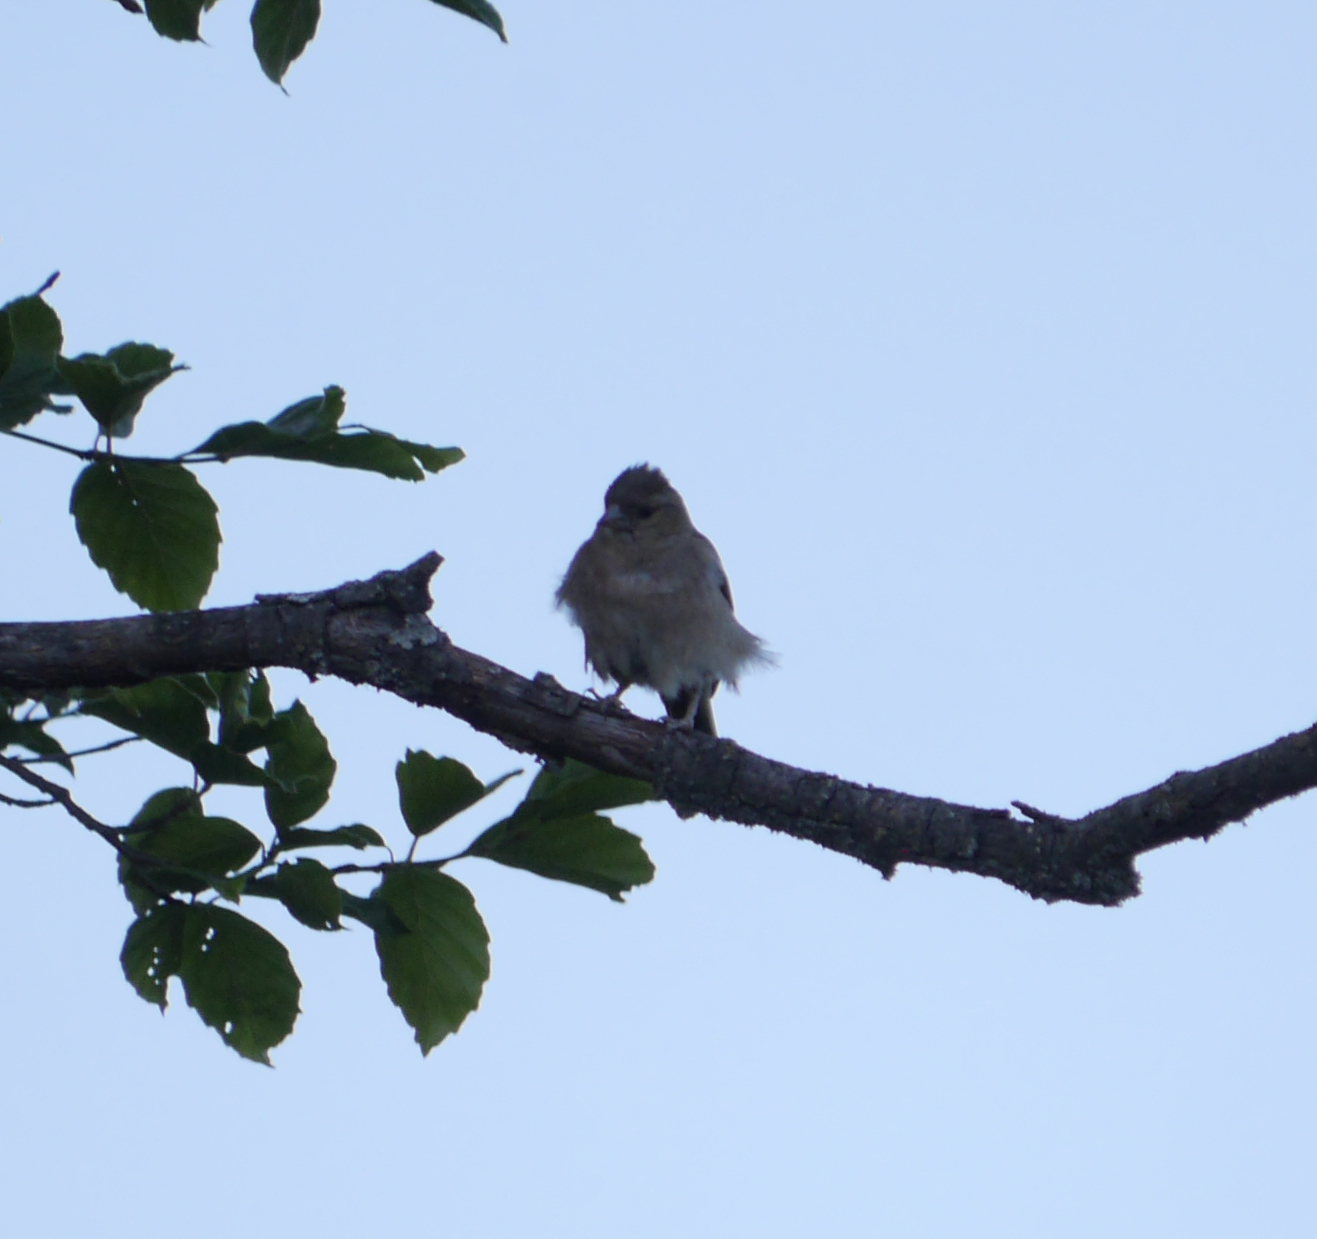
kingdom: Animalia
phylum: Chordata
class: Aves
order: Passeriformes
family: Fringillidae
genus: Fringilla
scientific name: Fringilla coelebs
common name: Common chaffinch
